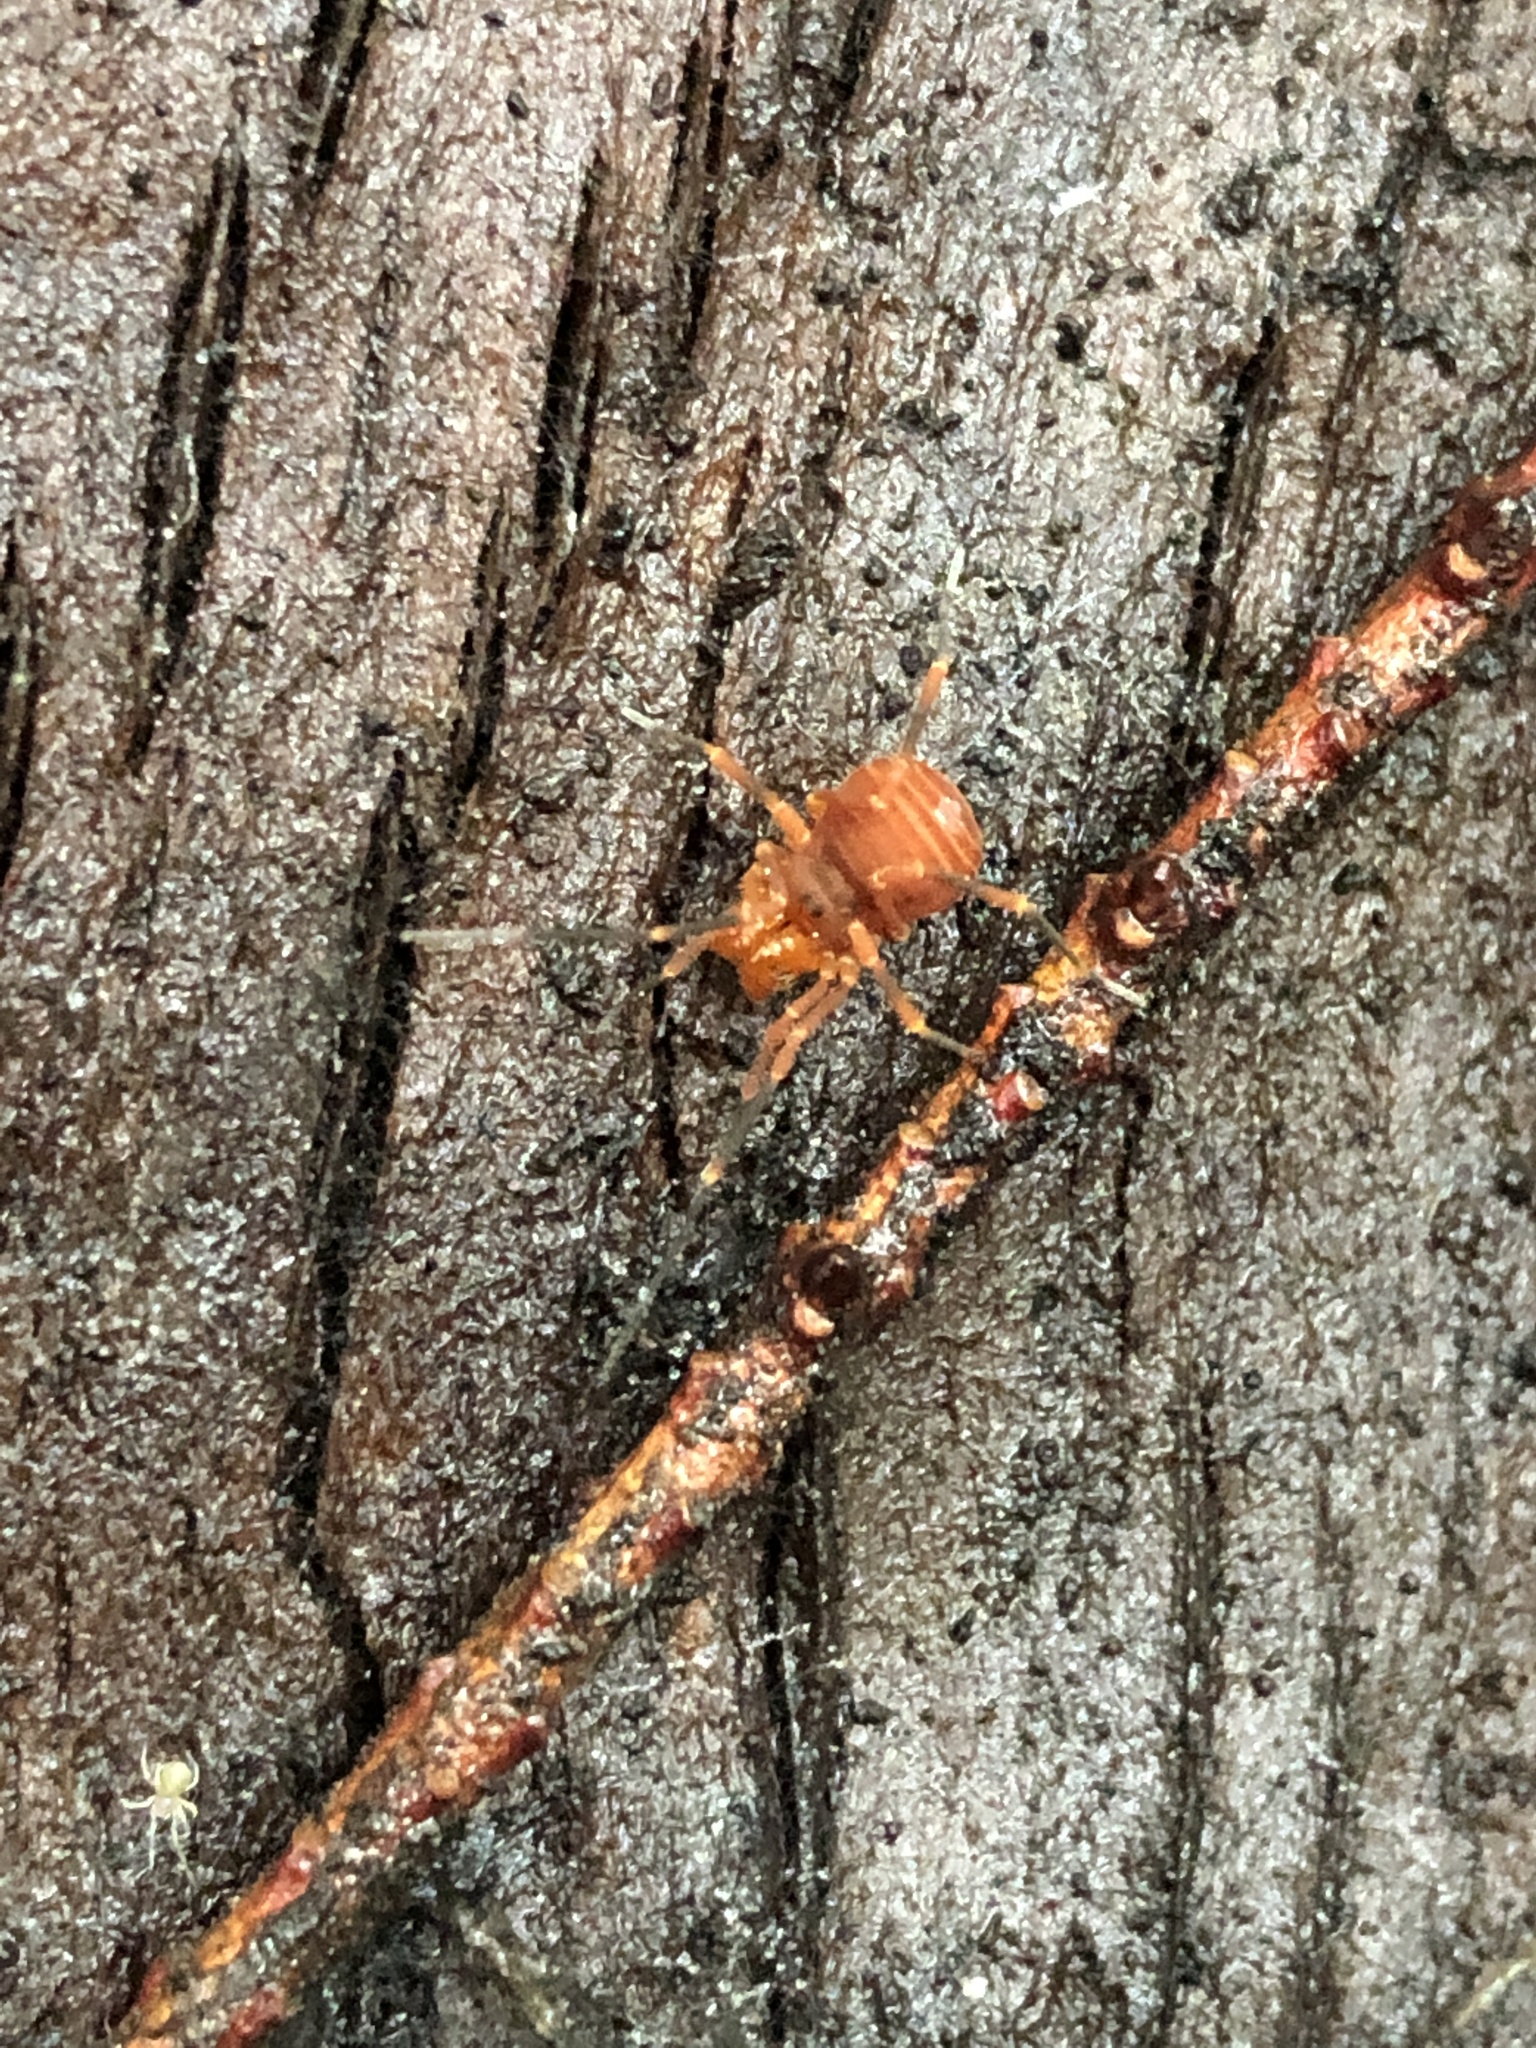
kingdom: Animalia
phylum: Arthropoda
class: Arachnida
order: Opiliones
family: Paranonychidae
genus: Sclerobunus
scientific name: Sclerobunus nondimorphicus
